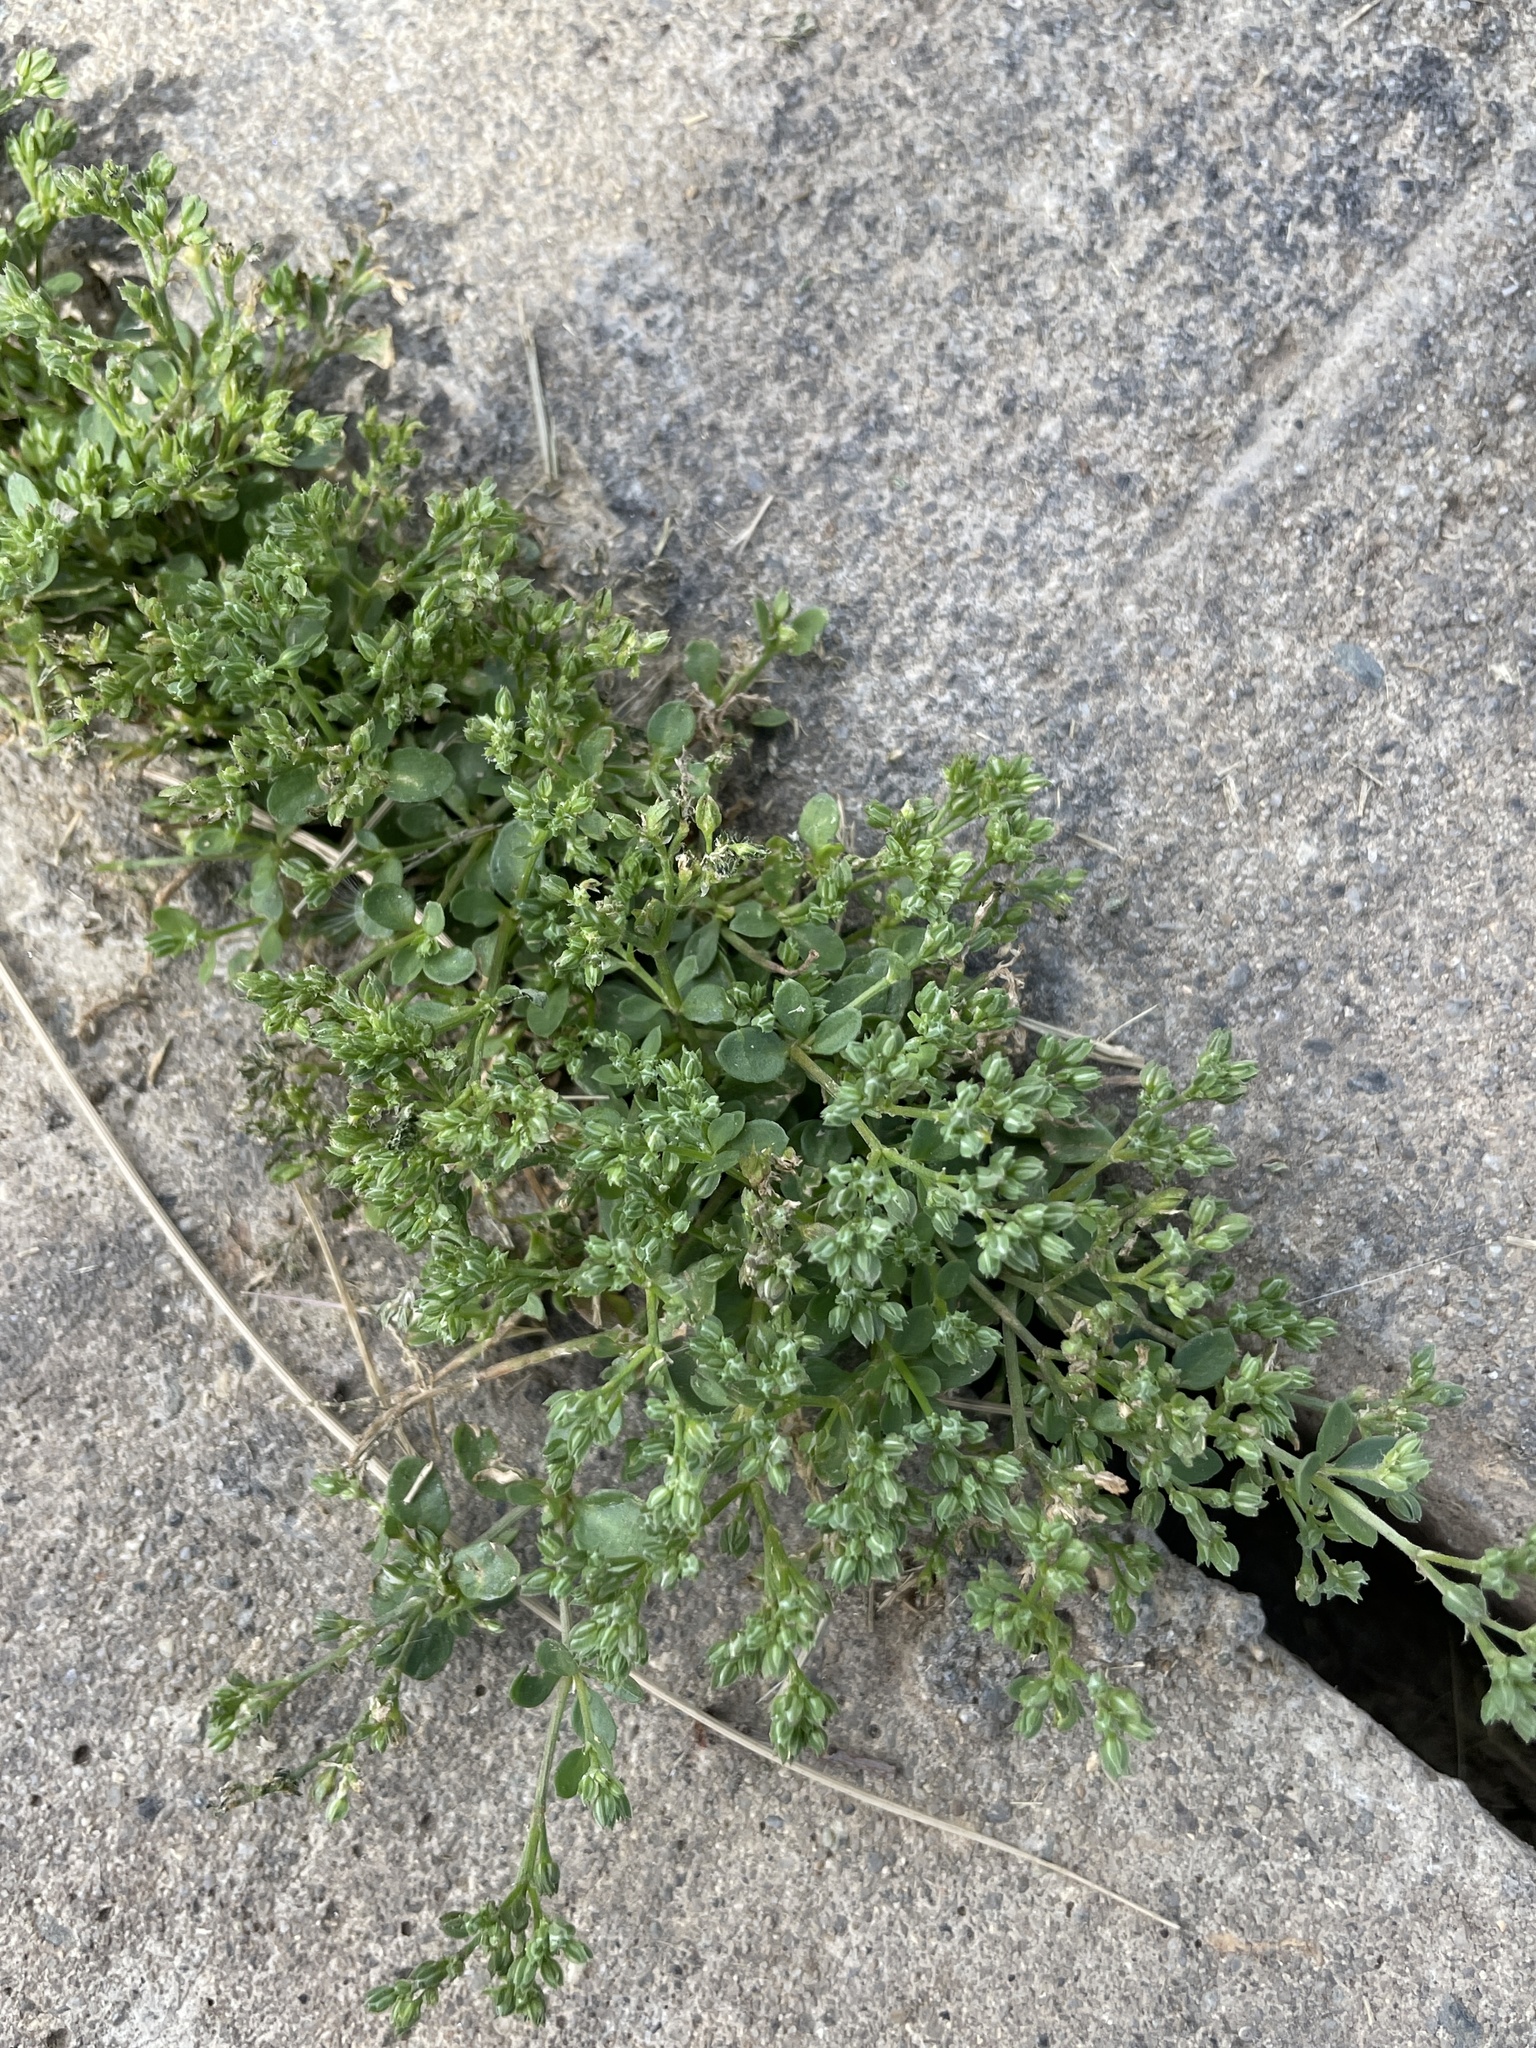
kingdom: Plantae
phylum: Tracheophyta
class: Magnoliopsida
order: Caryophyllales
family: Caryophyllaceae
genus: Polycarpon
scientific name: Polycarpon tetraphyllum
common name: Four-leaved all-seed
